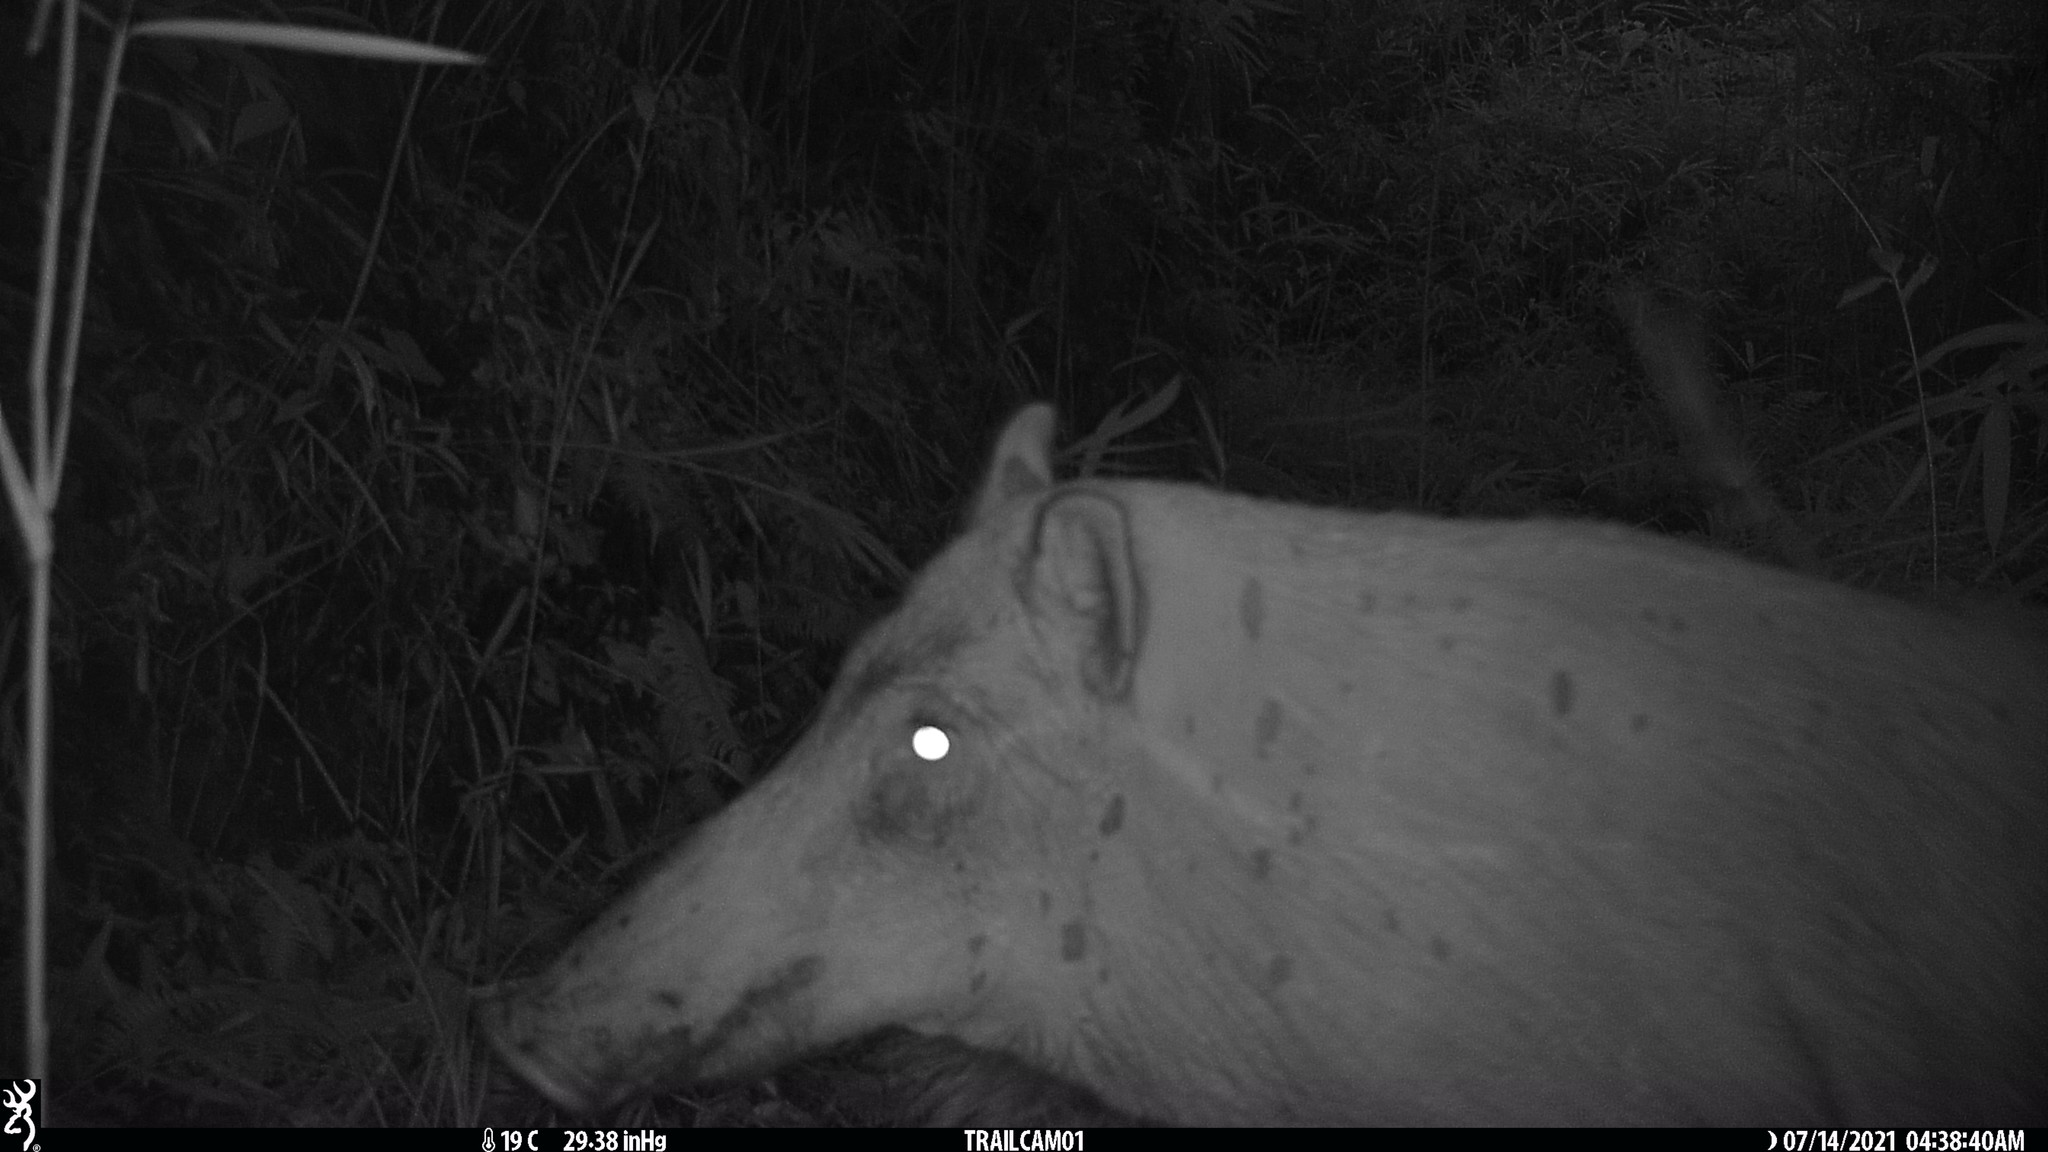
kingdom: Animalia
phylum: Chordata
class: Mammalia
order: Artiodactyla
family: Suidae
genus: Sus
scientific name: Sus scrofa
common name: Wild boar
